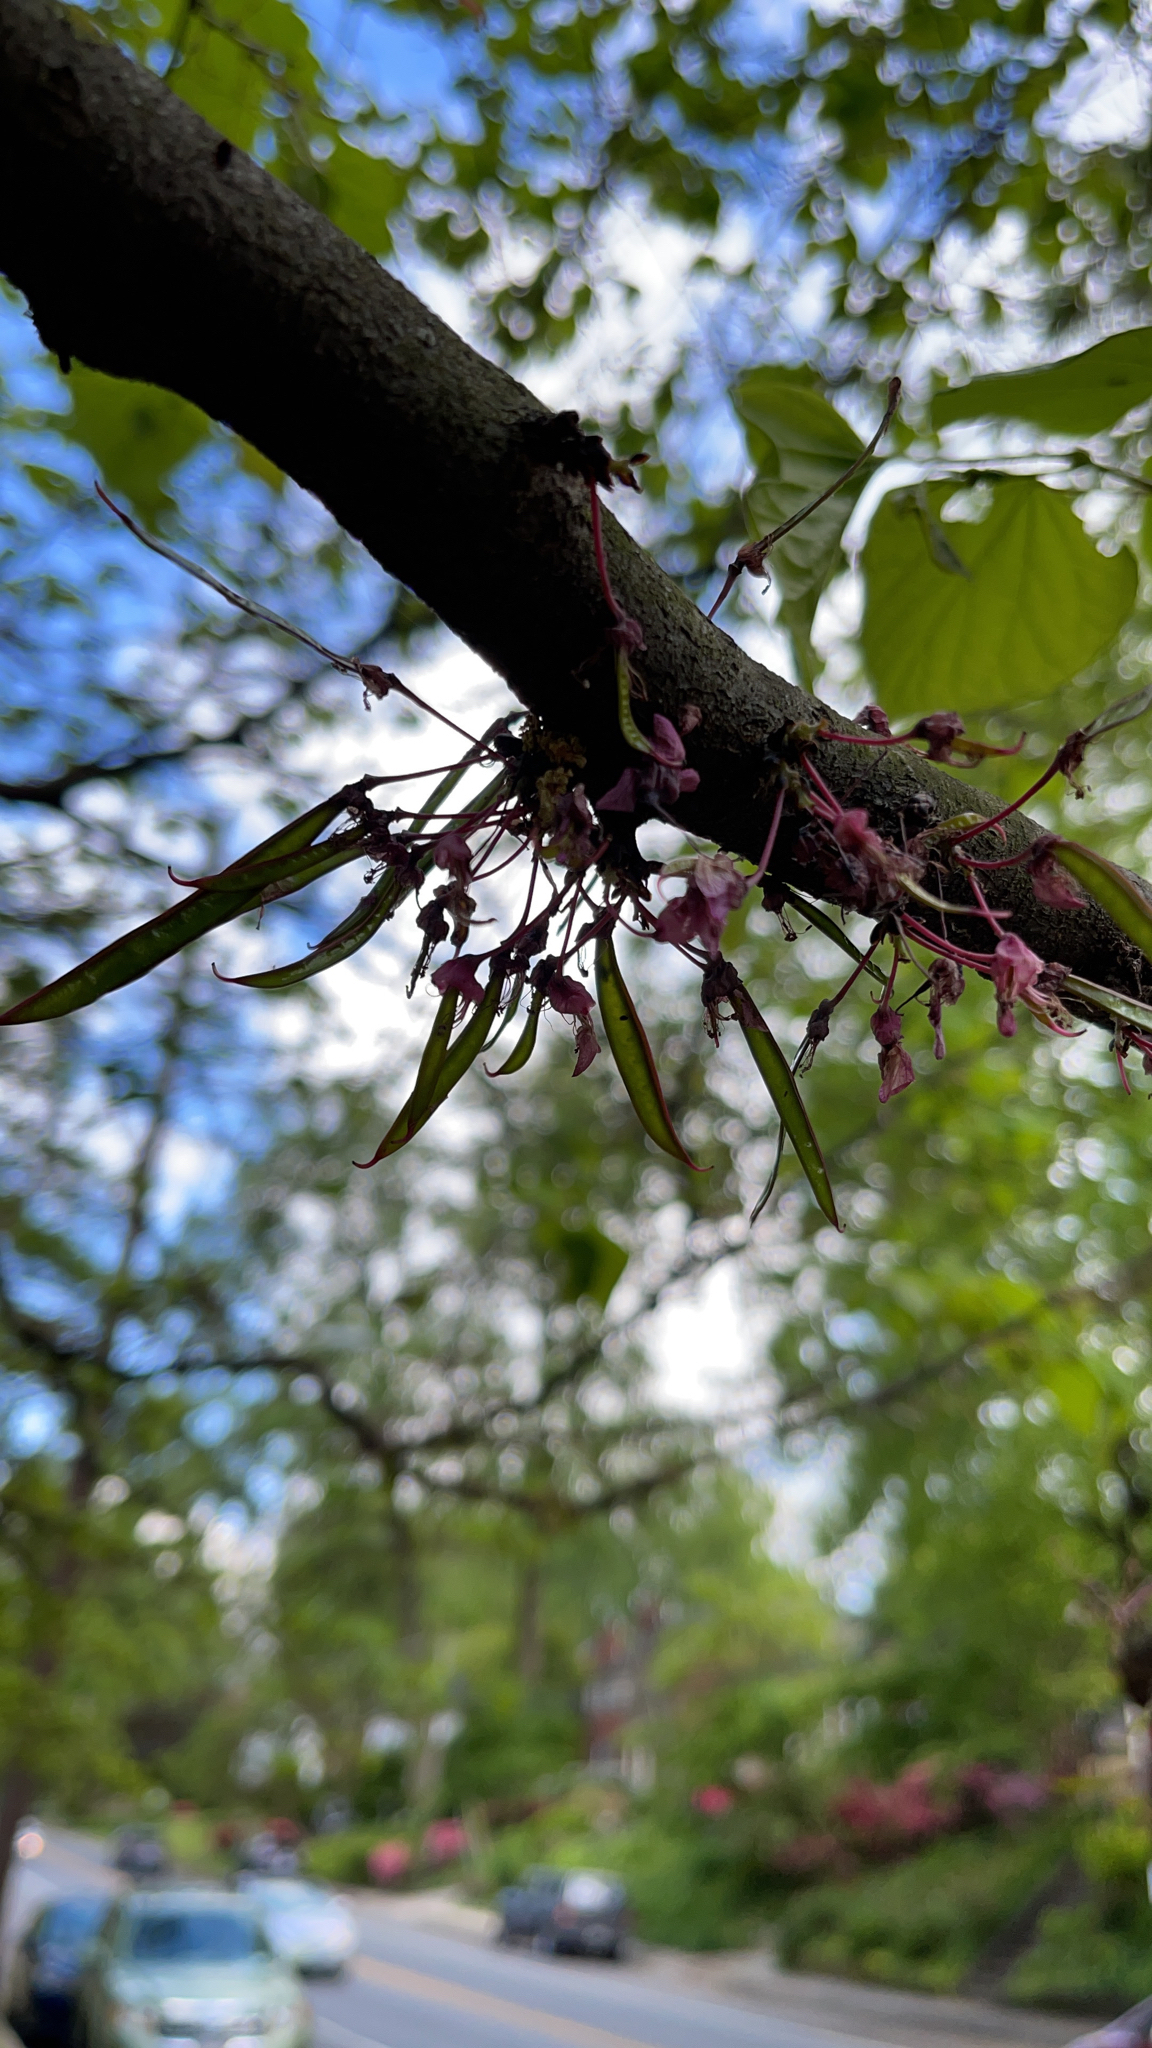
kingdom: Plantae
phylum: Tracheophyta
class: Magnoliopsida
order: Fabales
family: Fabaceae
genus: Cercis
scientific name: Cercis canadensis
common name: Eastern redbud
